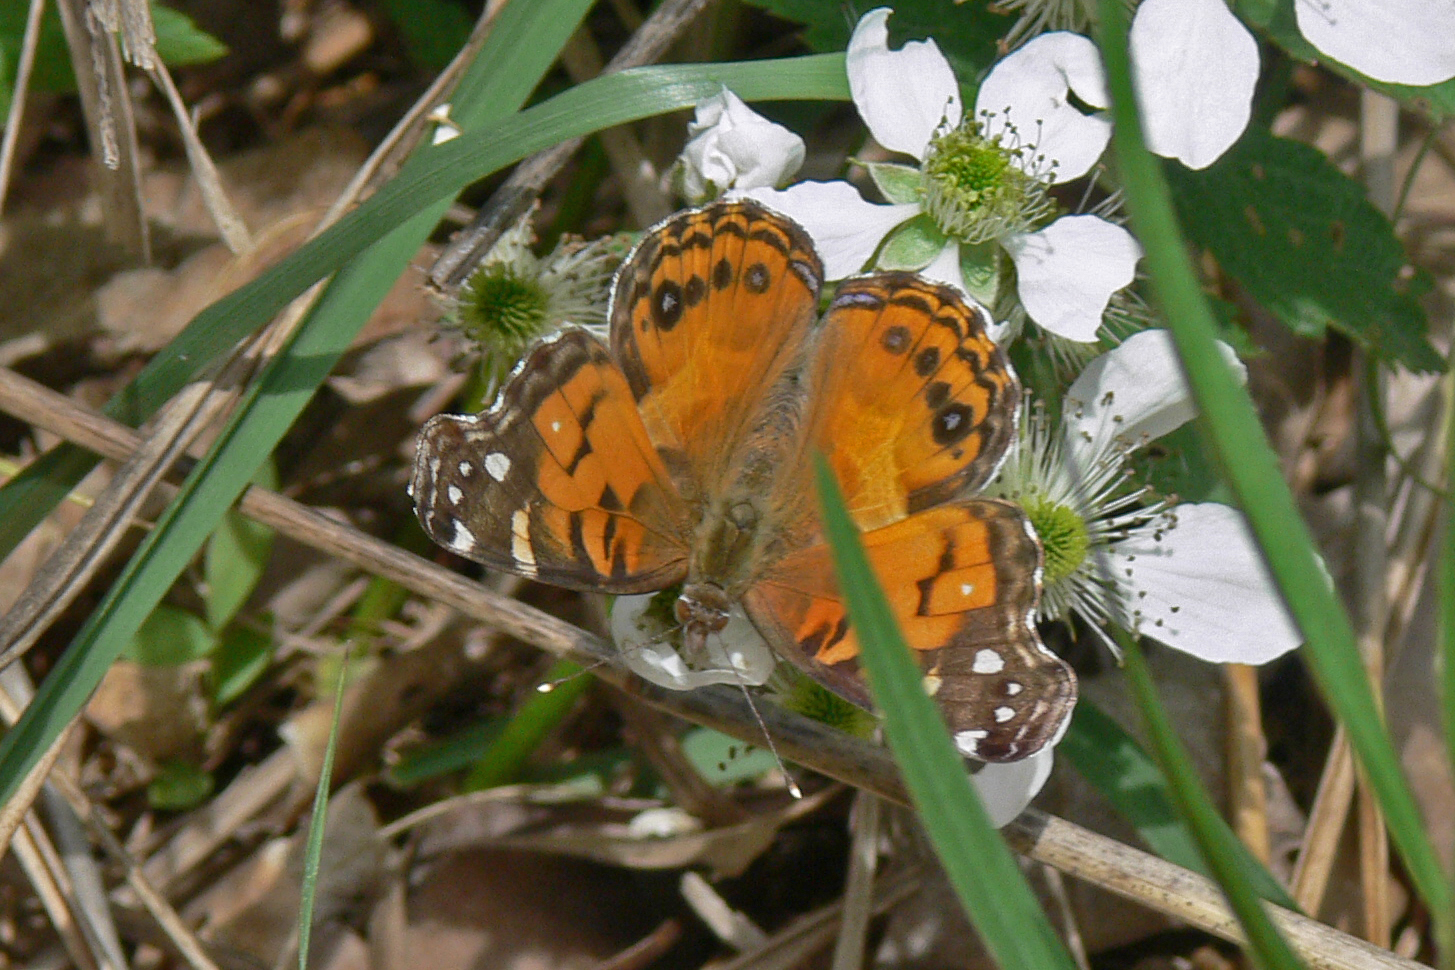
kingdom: Animalia
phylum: Arthropoda
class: Insecta
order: Lepidoptera
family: Nymphalidae
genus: Vanessa
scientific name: Vanessa virginiensis
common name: American lady
